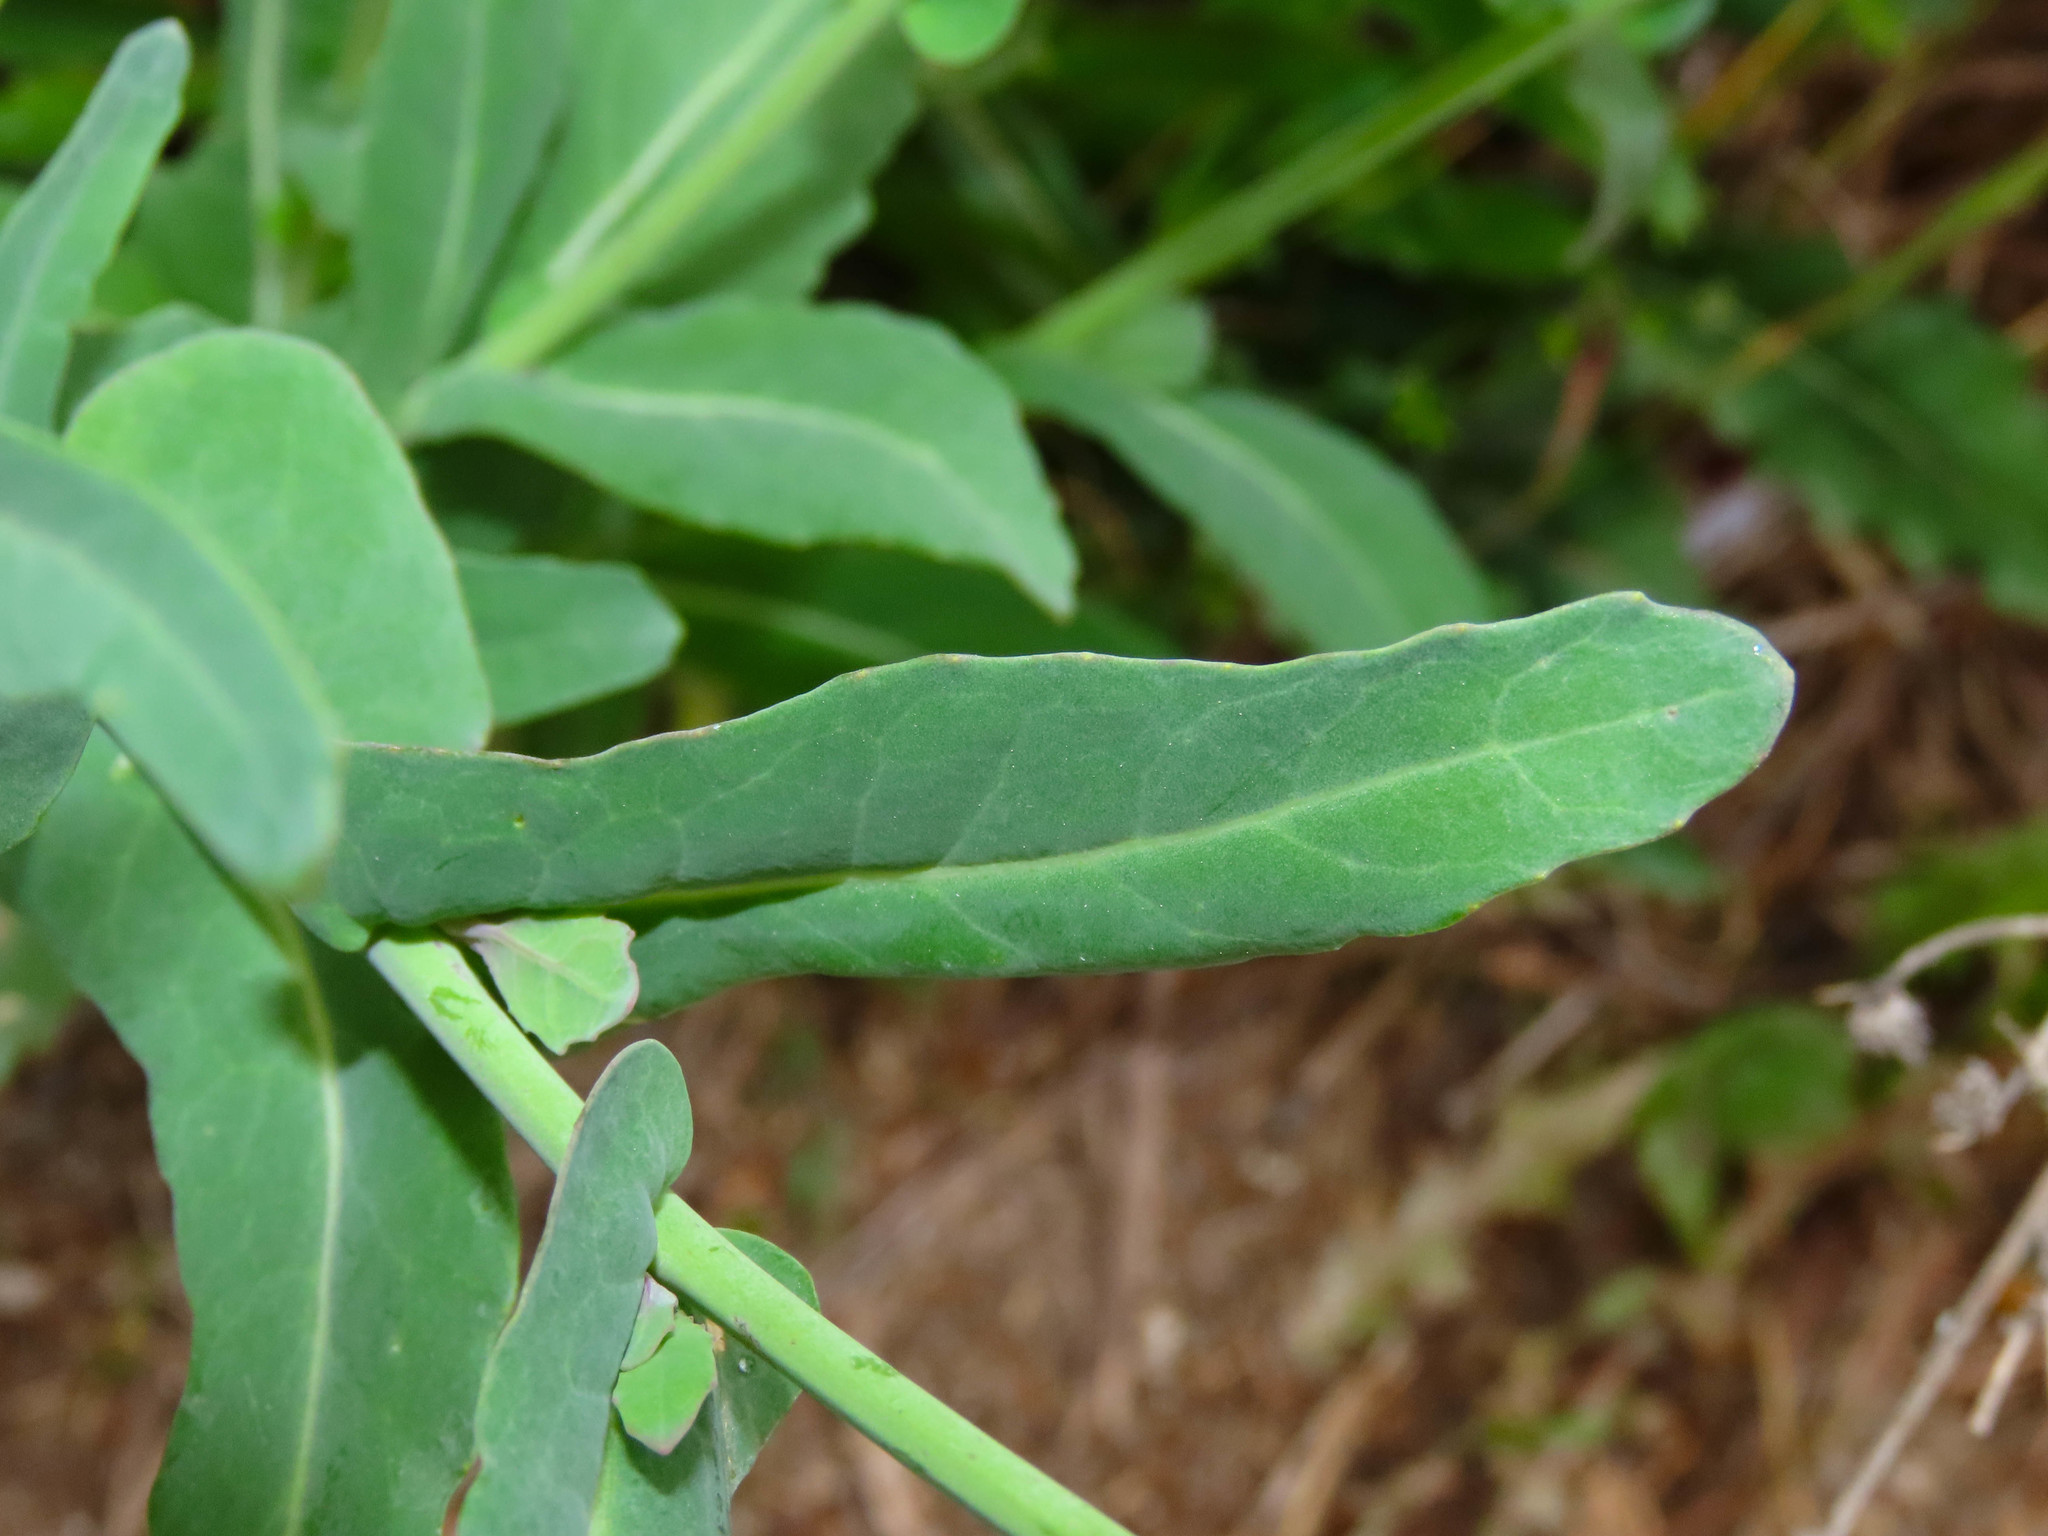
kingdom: Plantae
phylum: Tracheophyta
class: Magnoliopsida
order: Brassicales
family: Brassicaceae
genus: Brassica
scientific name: Brassica napus
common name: Rape
